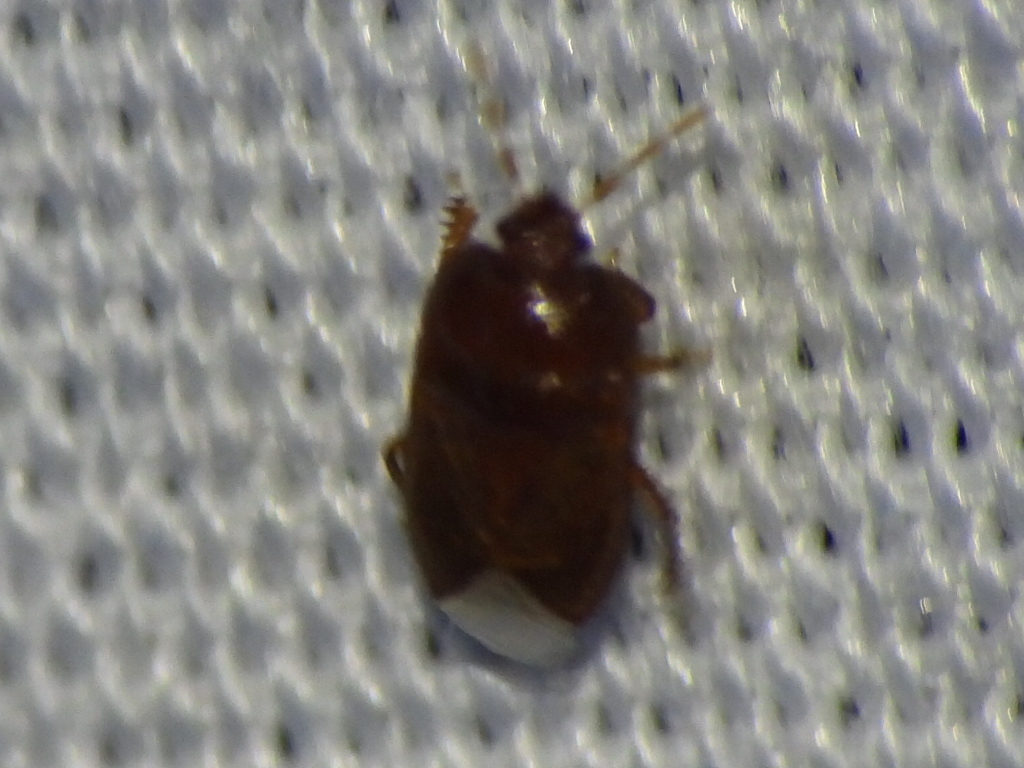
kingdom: Animalia
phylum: Arthropoda
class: Insecta
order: Hemiptera
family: Cydnidae
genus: Amnestus
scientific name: Amnestus
